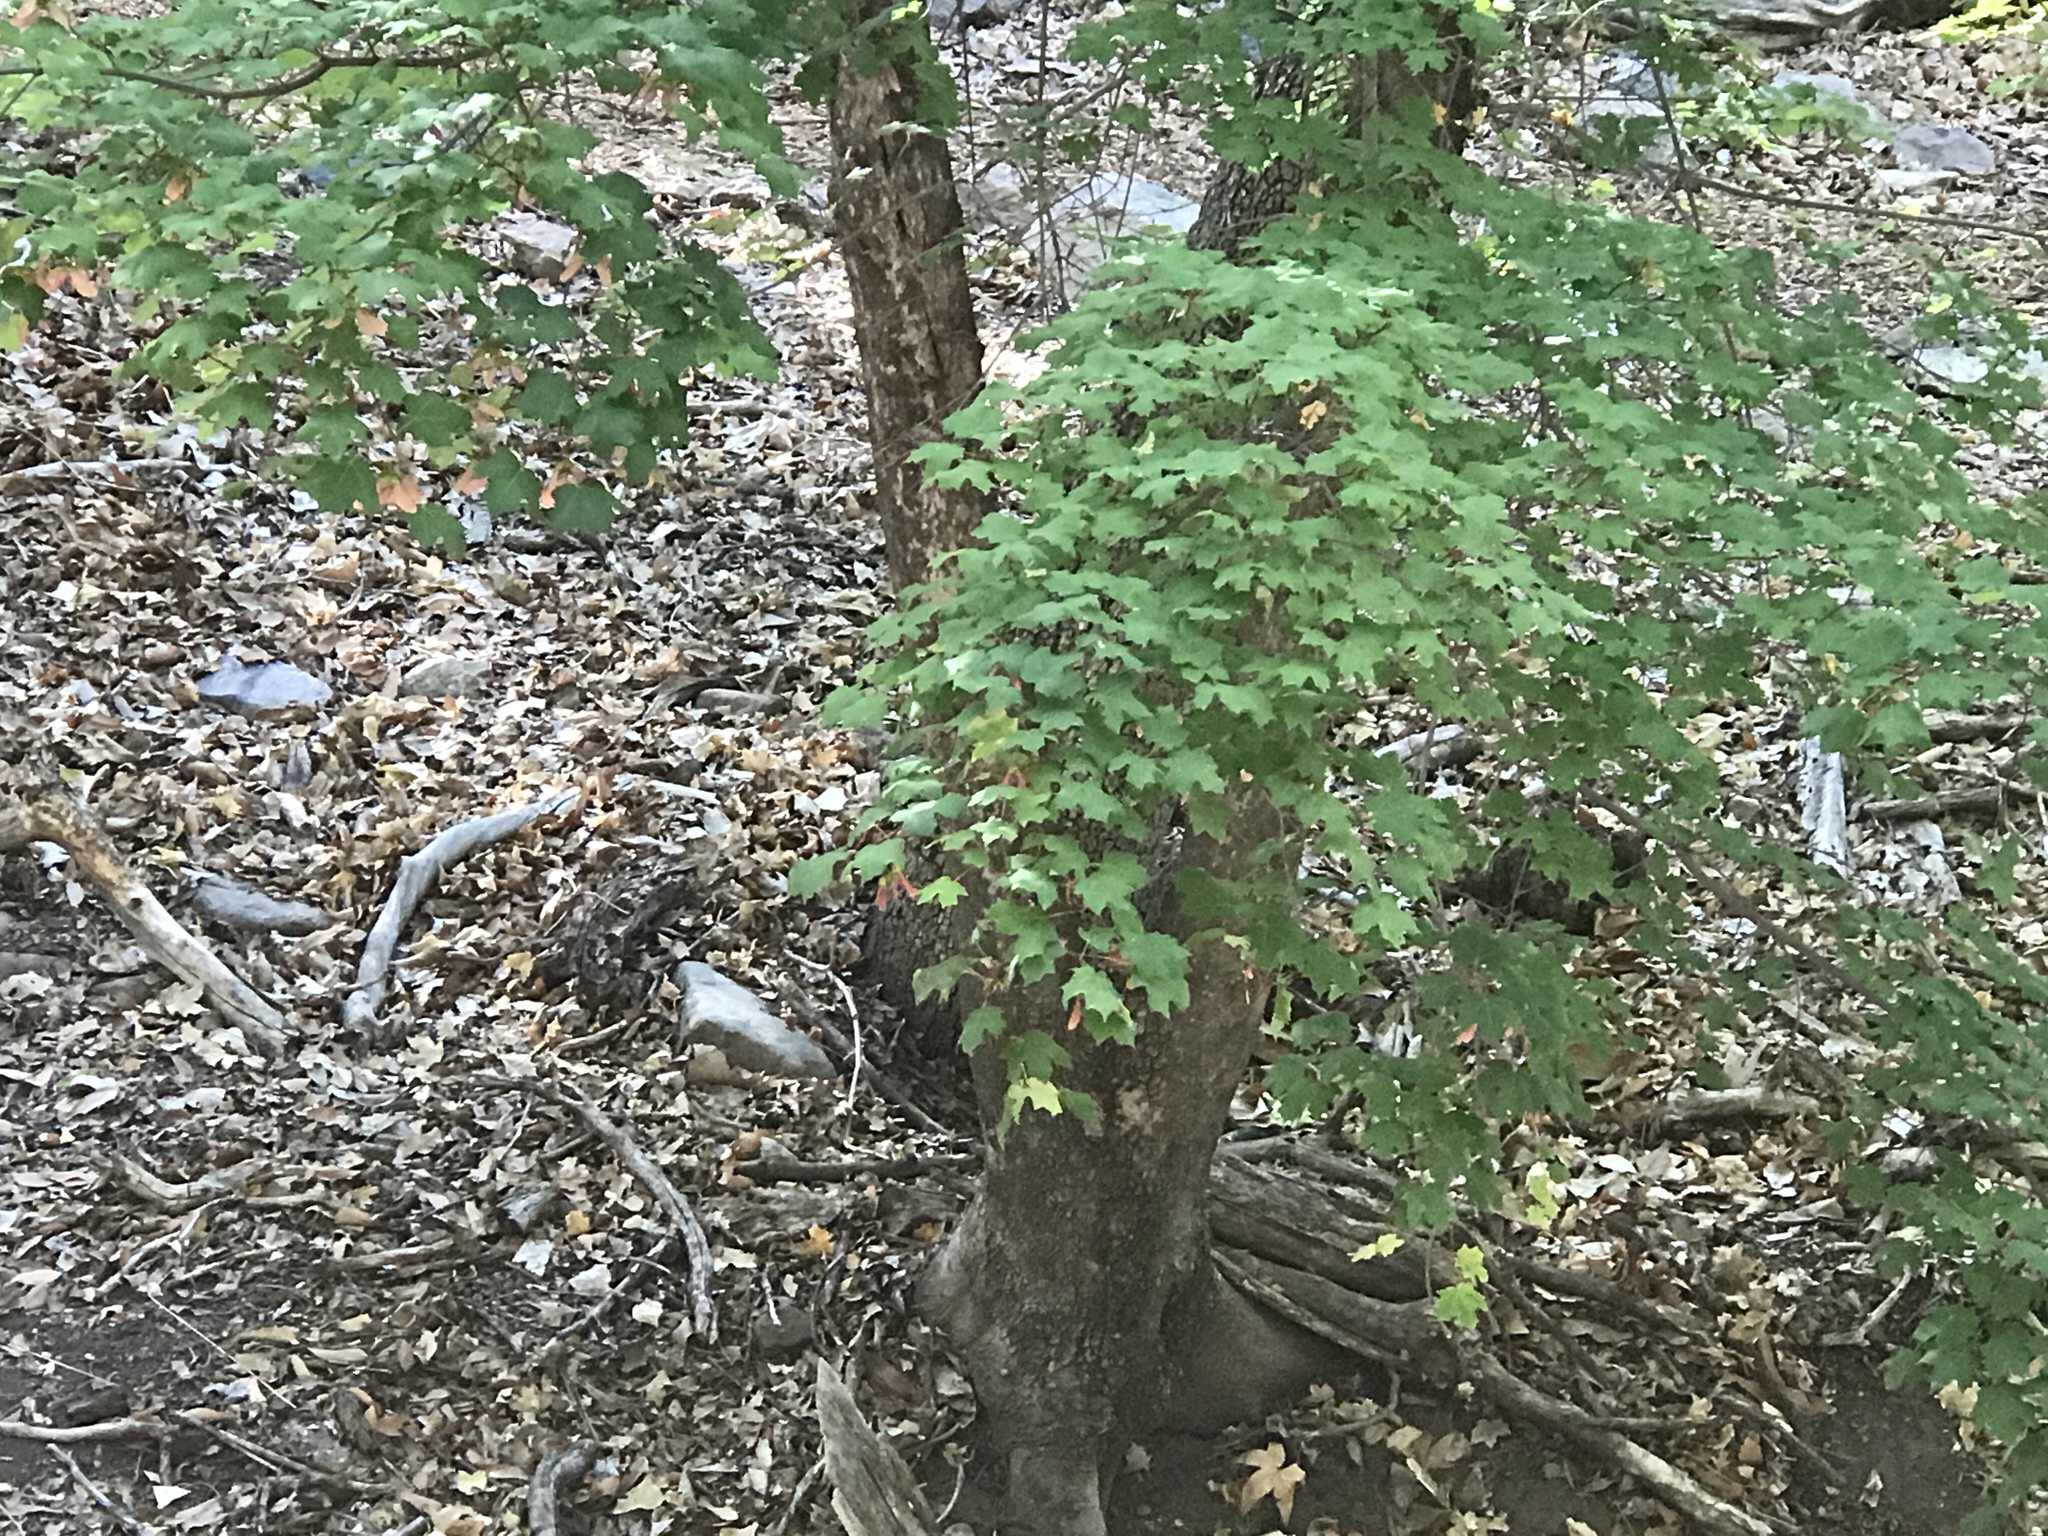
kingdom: Plantae
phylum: Tracheophyta
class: Magnoliopsida
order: Sapindales
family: Sapindaceae
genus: Acer
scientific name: Acer grandidentatum
